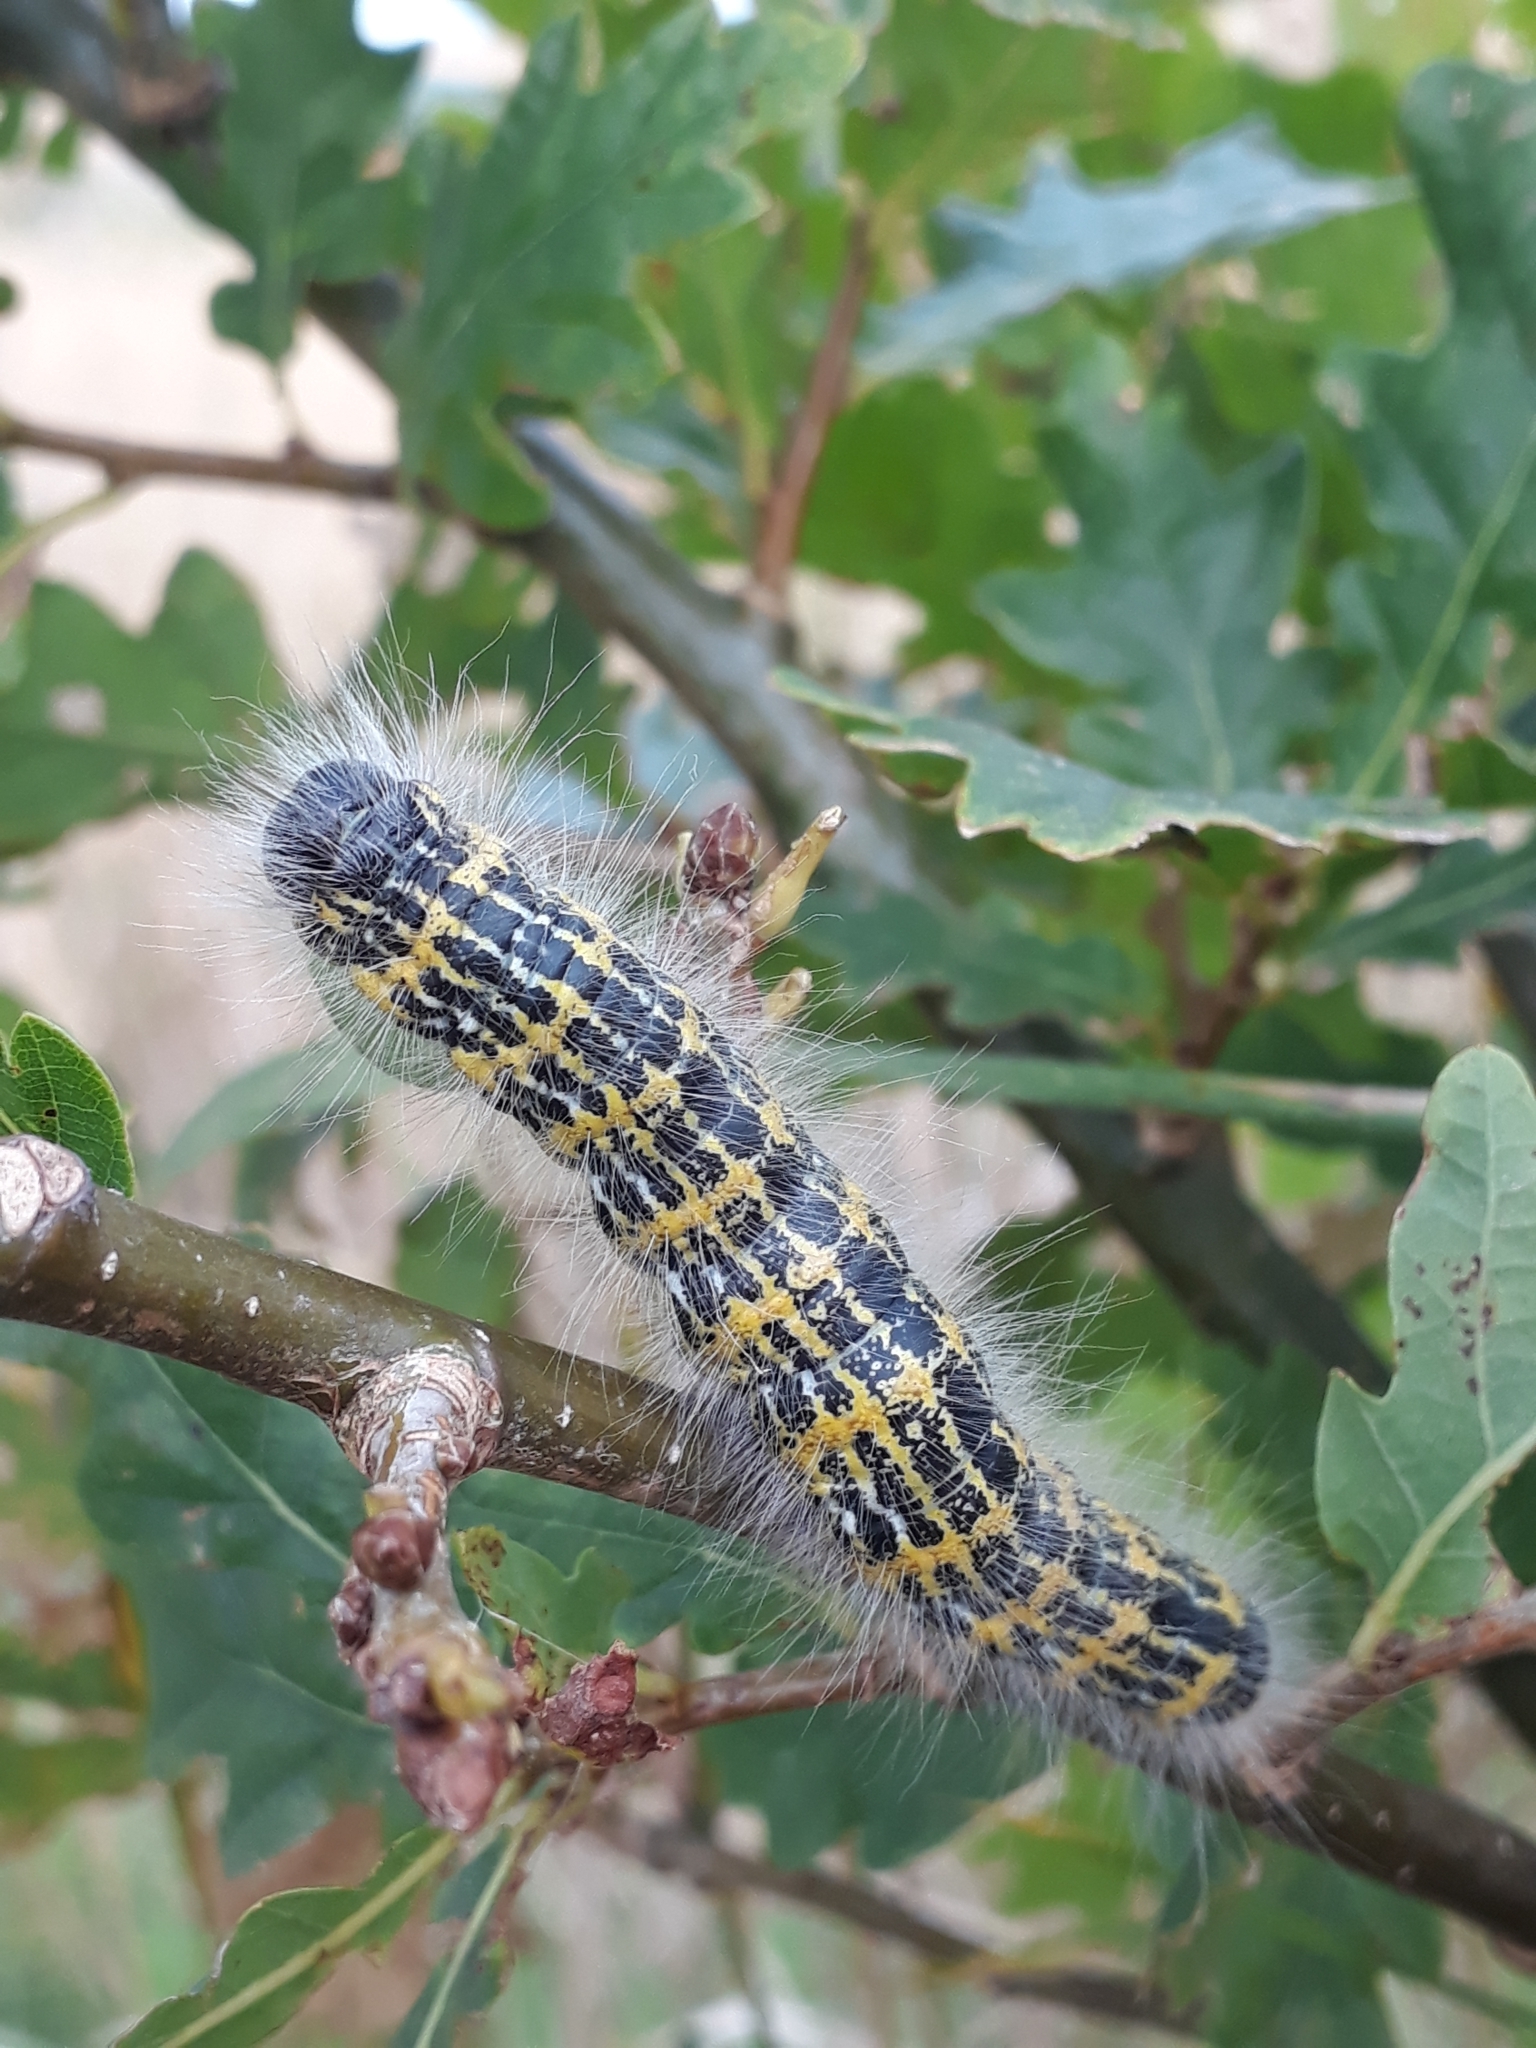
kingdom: Animalia
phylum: Arthropoda
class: Insecta
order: Lepidoptera
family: Notodontidae
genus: Phalera
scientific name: Phalera bucephala
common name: Buff-tip
